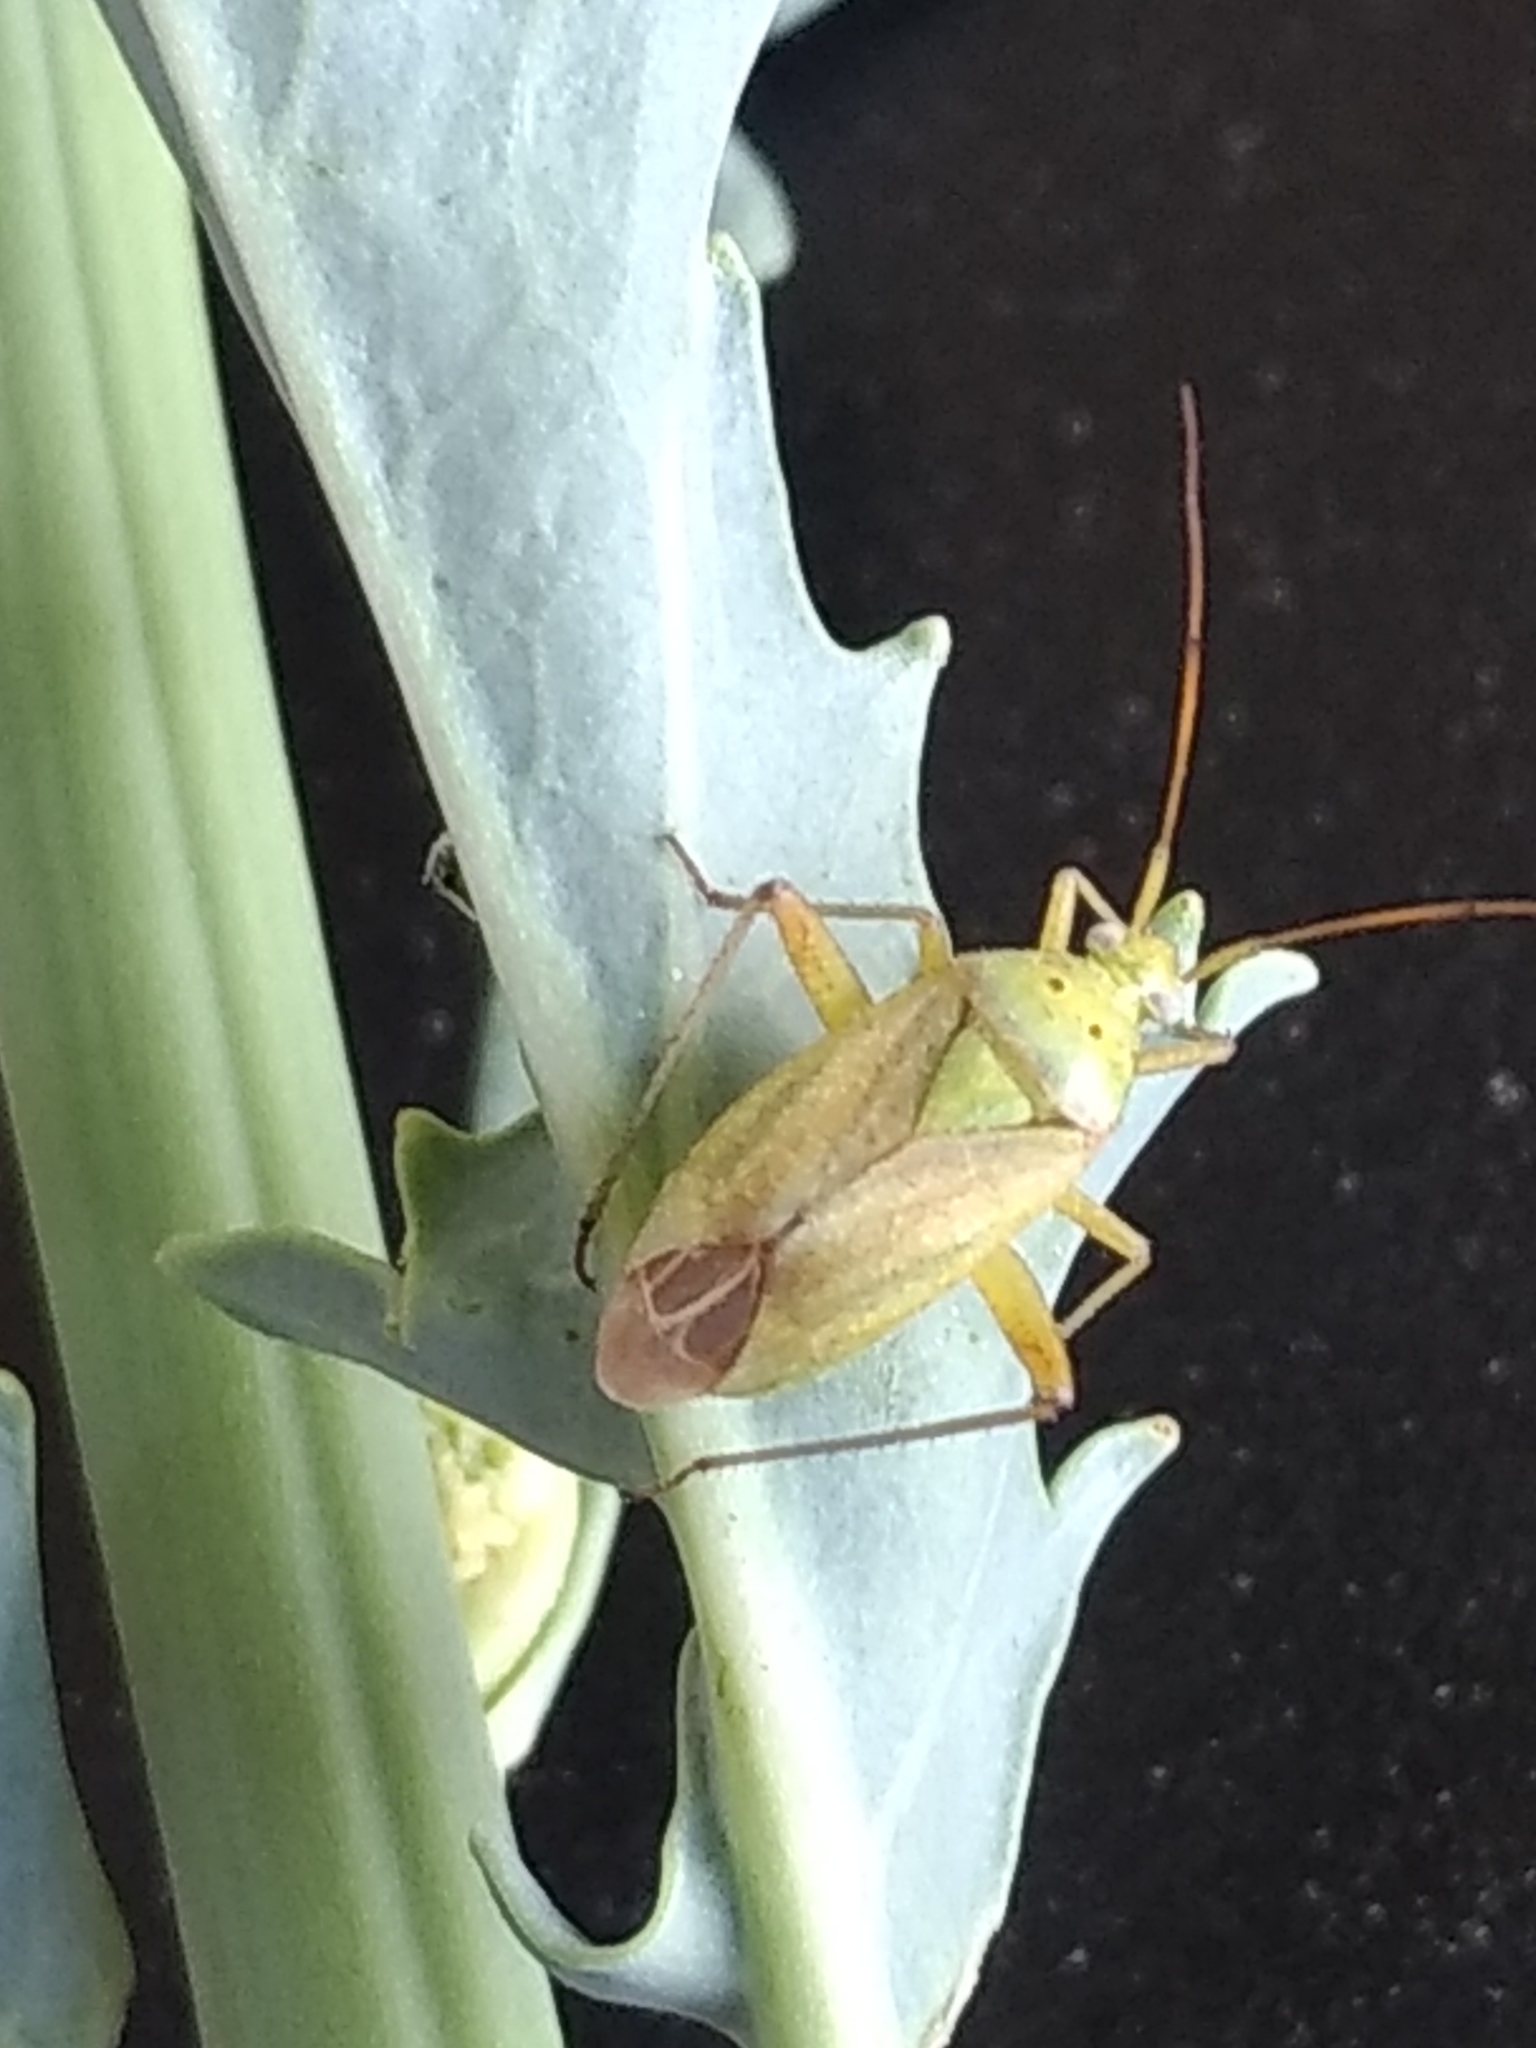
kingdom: Animalia
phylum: Arthropoda
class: Insecta
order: Hemiptera
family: Miridae
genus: Closterotomus
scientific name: Closterotomus norvegicus
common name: Plant bug
